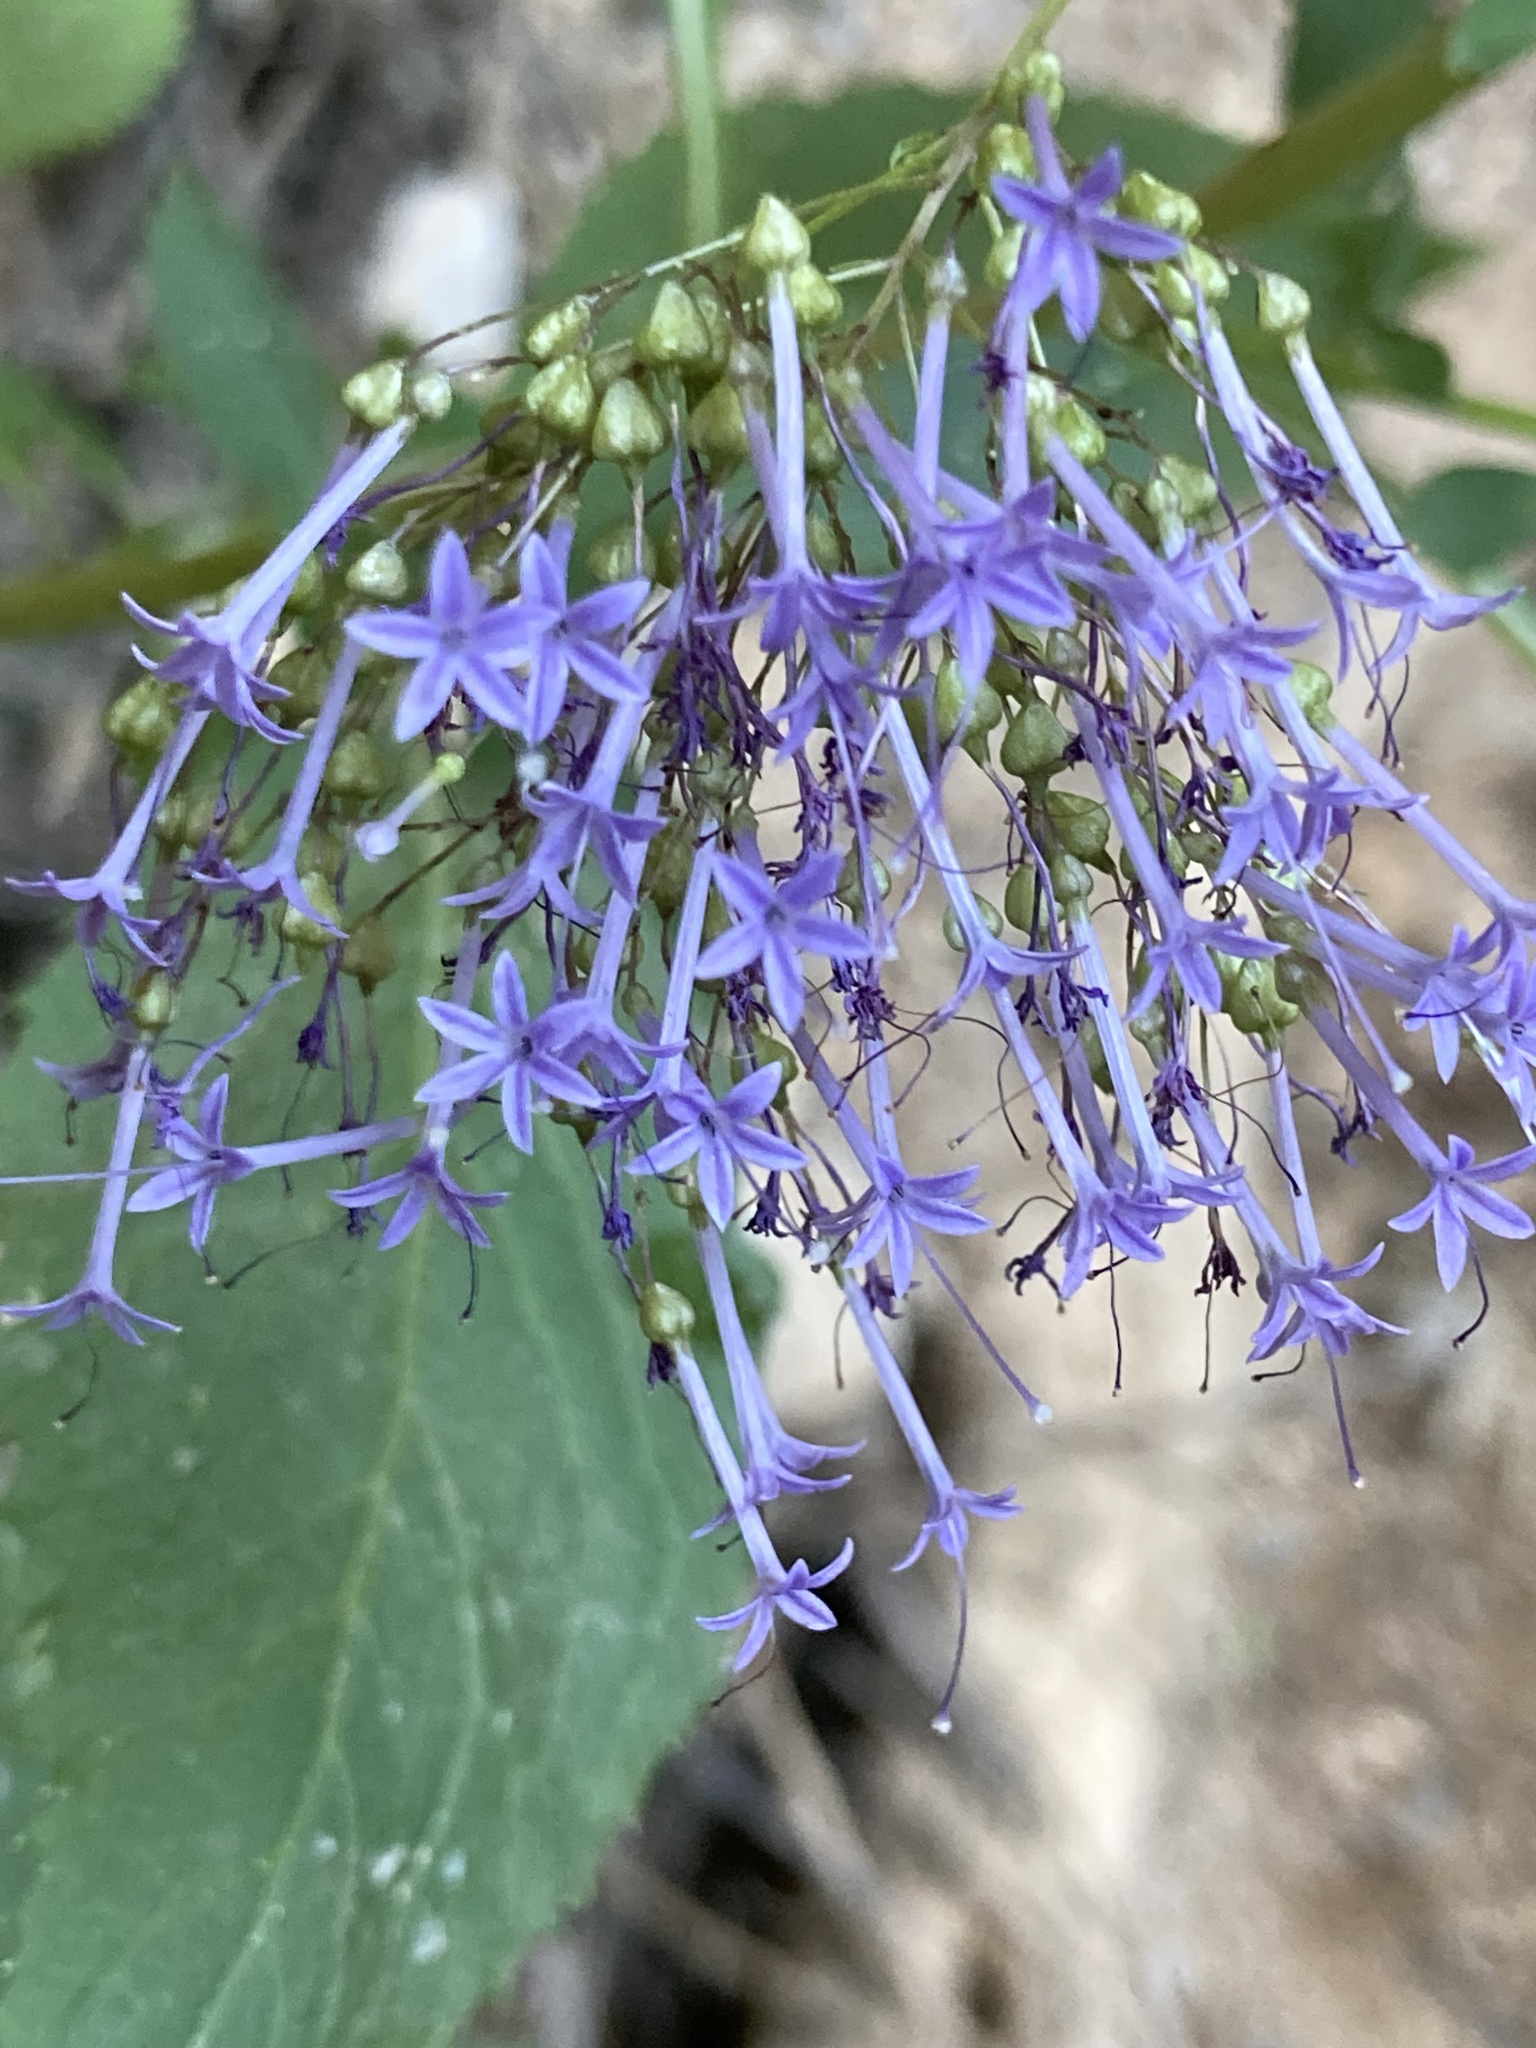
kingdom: Plantae
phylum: Tracheophyta
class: Magnoliopsida
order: Asterales
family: Campanulaceae
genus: Trachelium
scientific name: Trachelium caeruleum
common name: Throatwort
